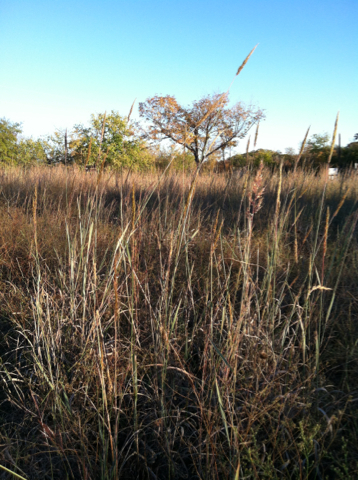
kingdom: Plantae
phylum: Tracheophyta
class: Liliopsida
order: Poales
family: Poaceae
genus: Sorghastrum
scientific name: Sorghastrum nutans
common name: Indian grass
